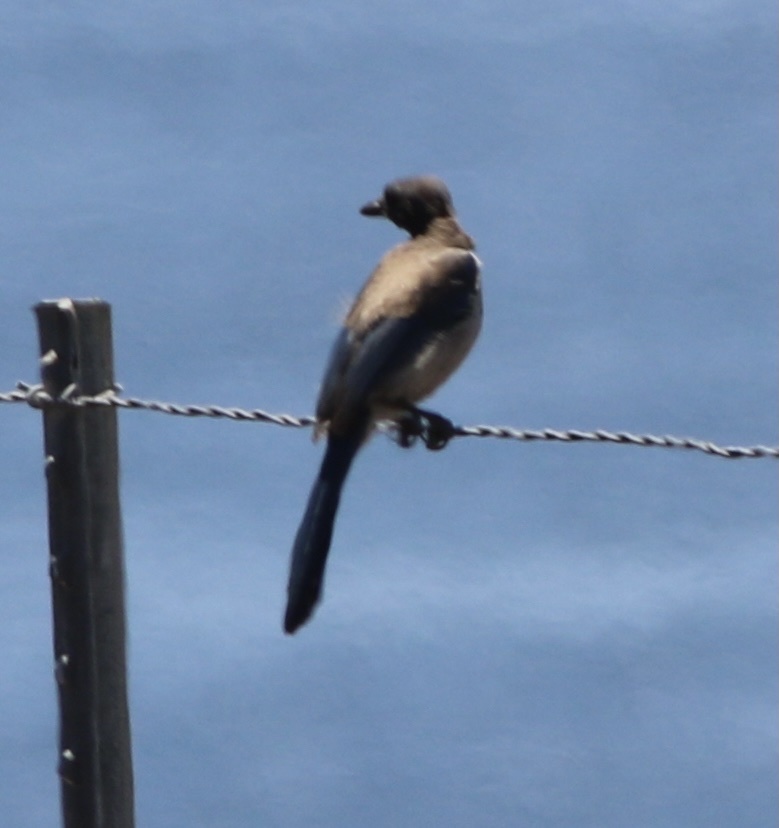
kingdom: Animalia
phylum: Chordata
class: Aves
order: Passeriformes
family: Corvidae
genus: Aphelocoma
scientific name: Aphelocoma californica
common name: California scrub-jay
